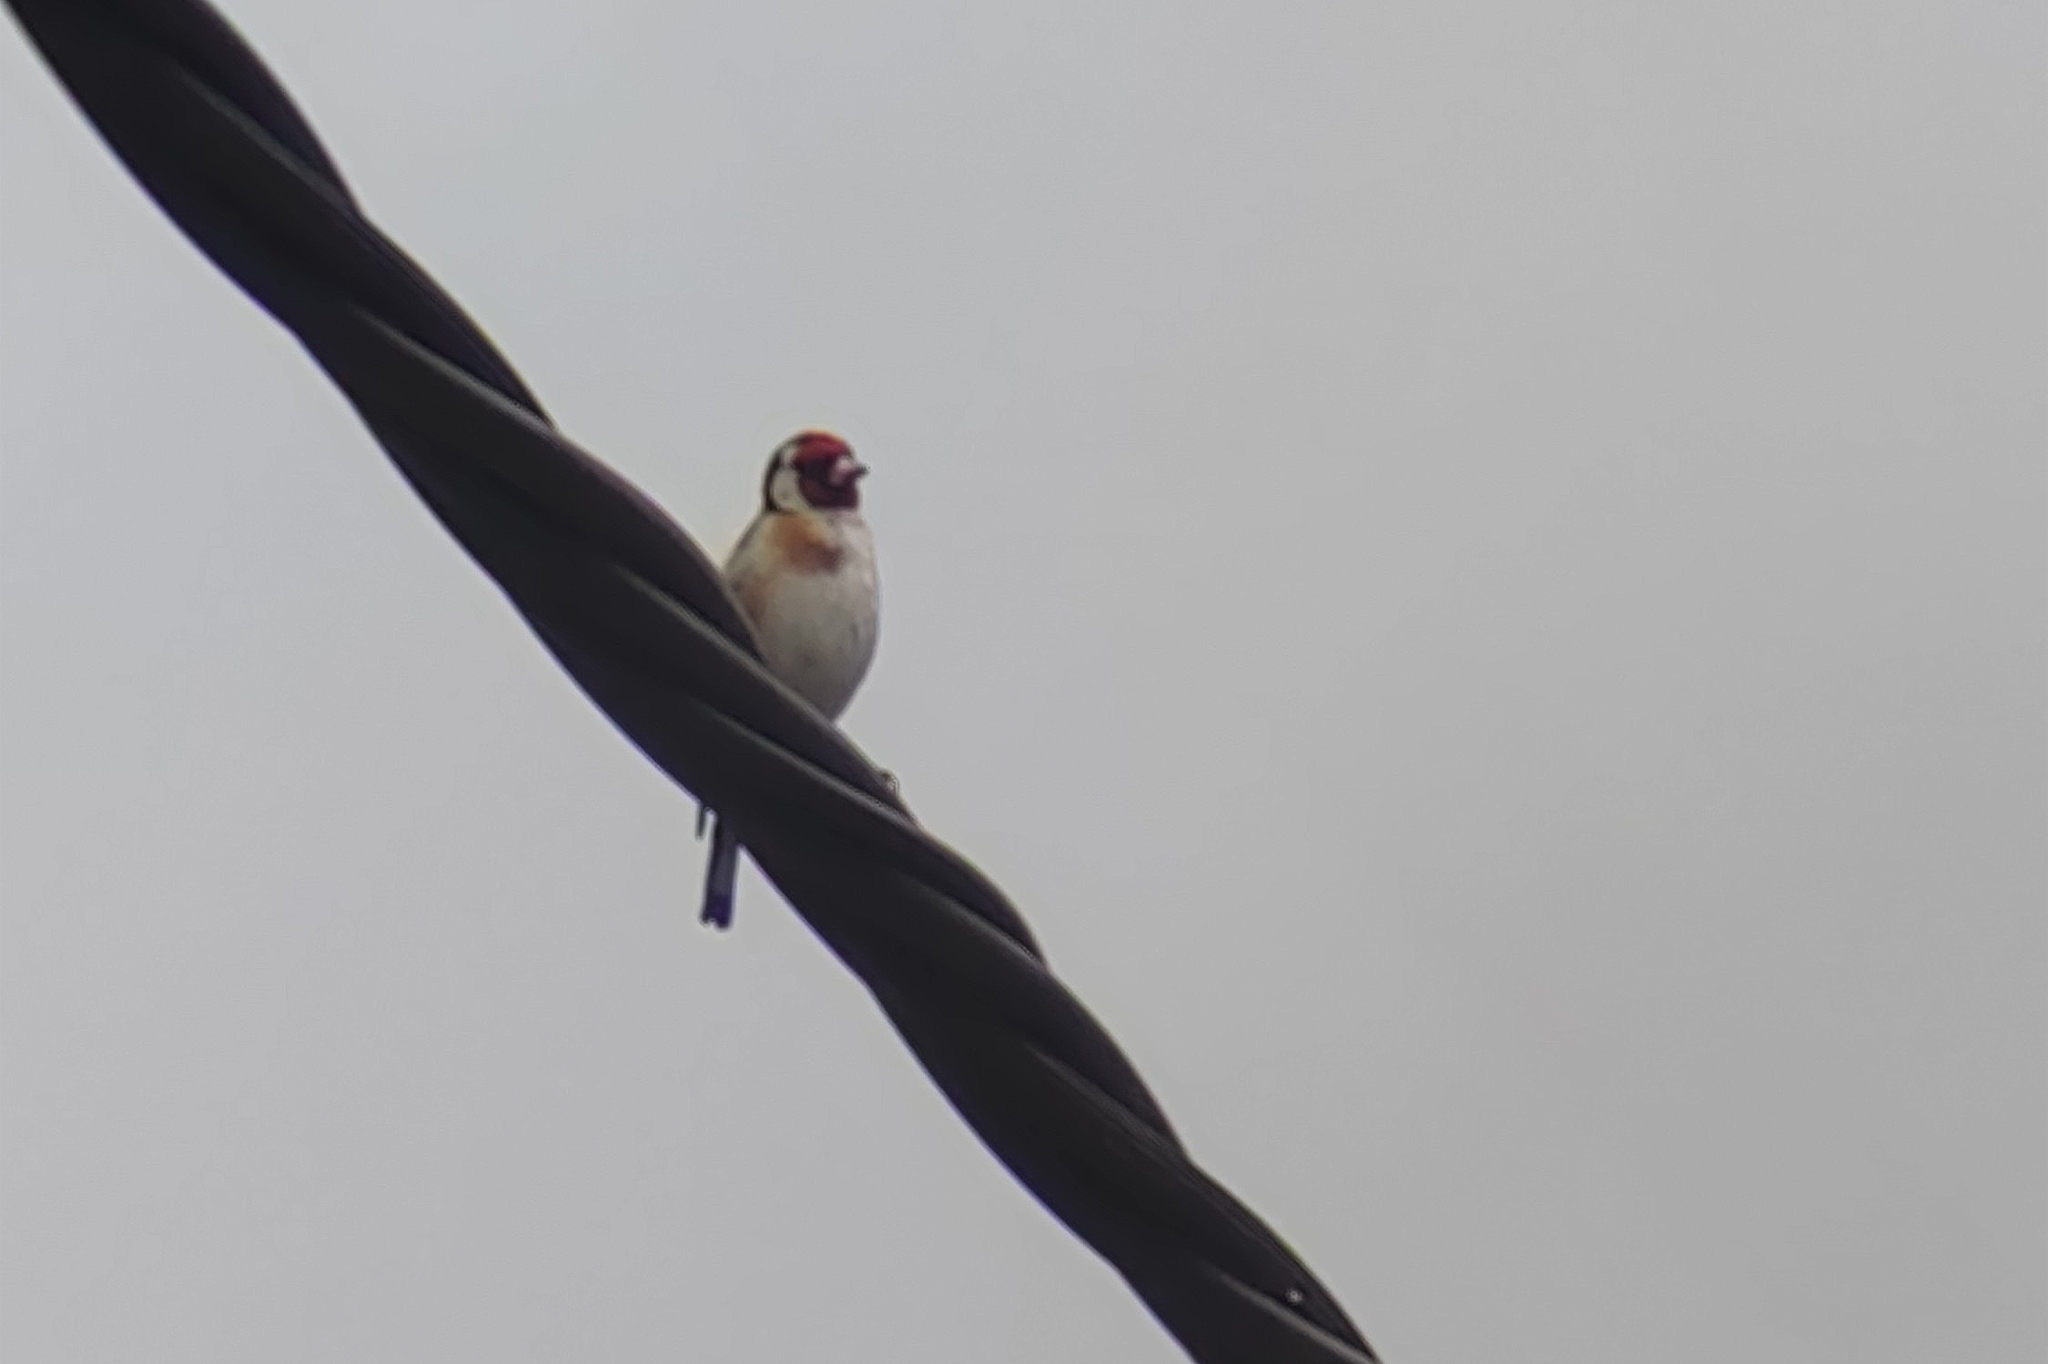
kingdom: Animalia
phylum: Chordata
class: Aves
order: Passeriformes
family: Fringillidae
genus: Carduelis
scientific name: Carduelis carduelis
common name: European goldfinch
